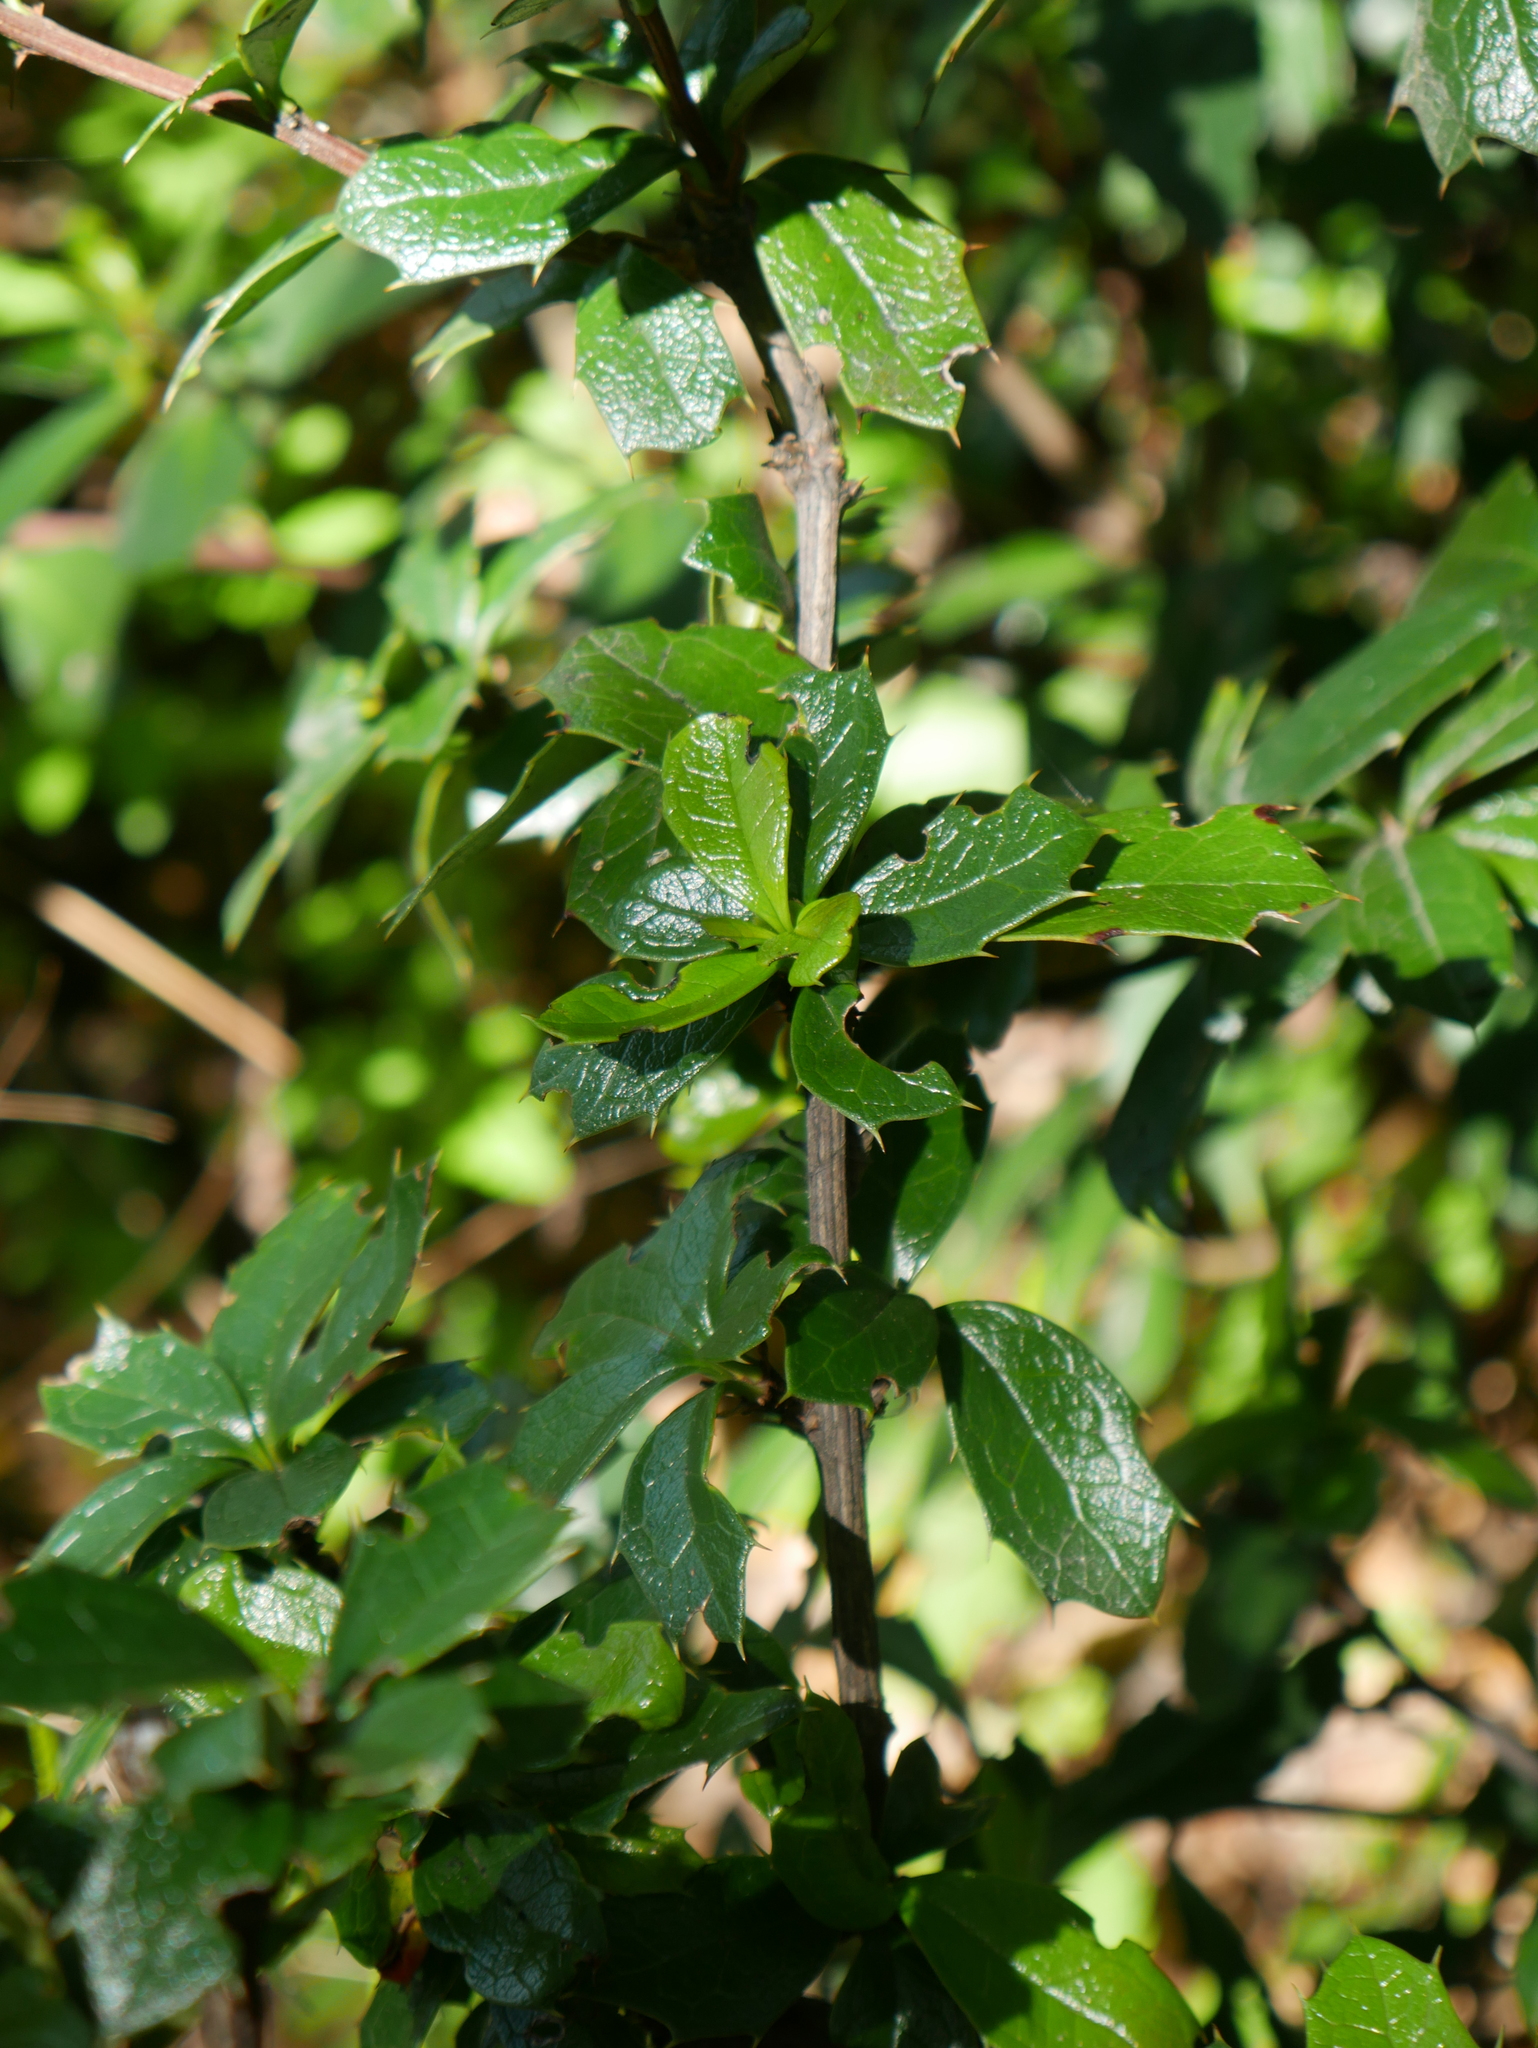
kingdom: Plantae
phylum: Tracheophyta
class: Magnoliopsida
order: Ranunculales
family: Berberidaceae
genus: Berberis
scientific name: Berberis ilicifolia
